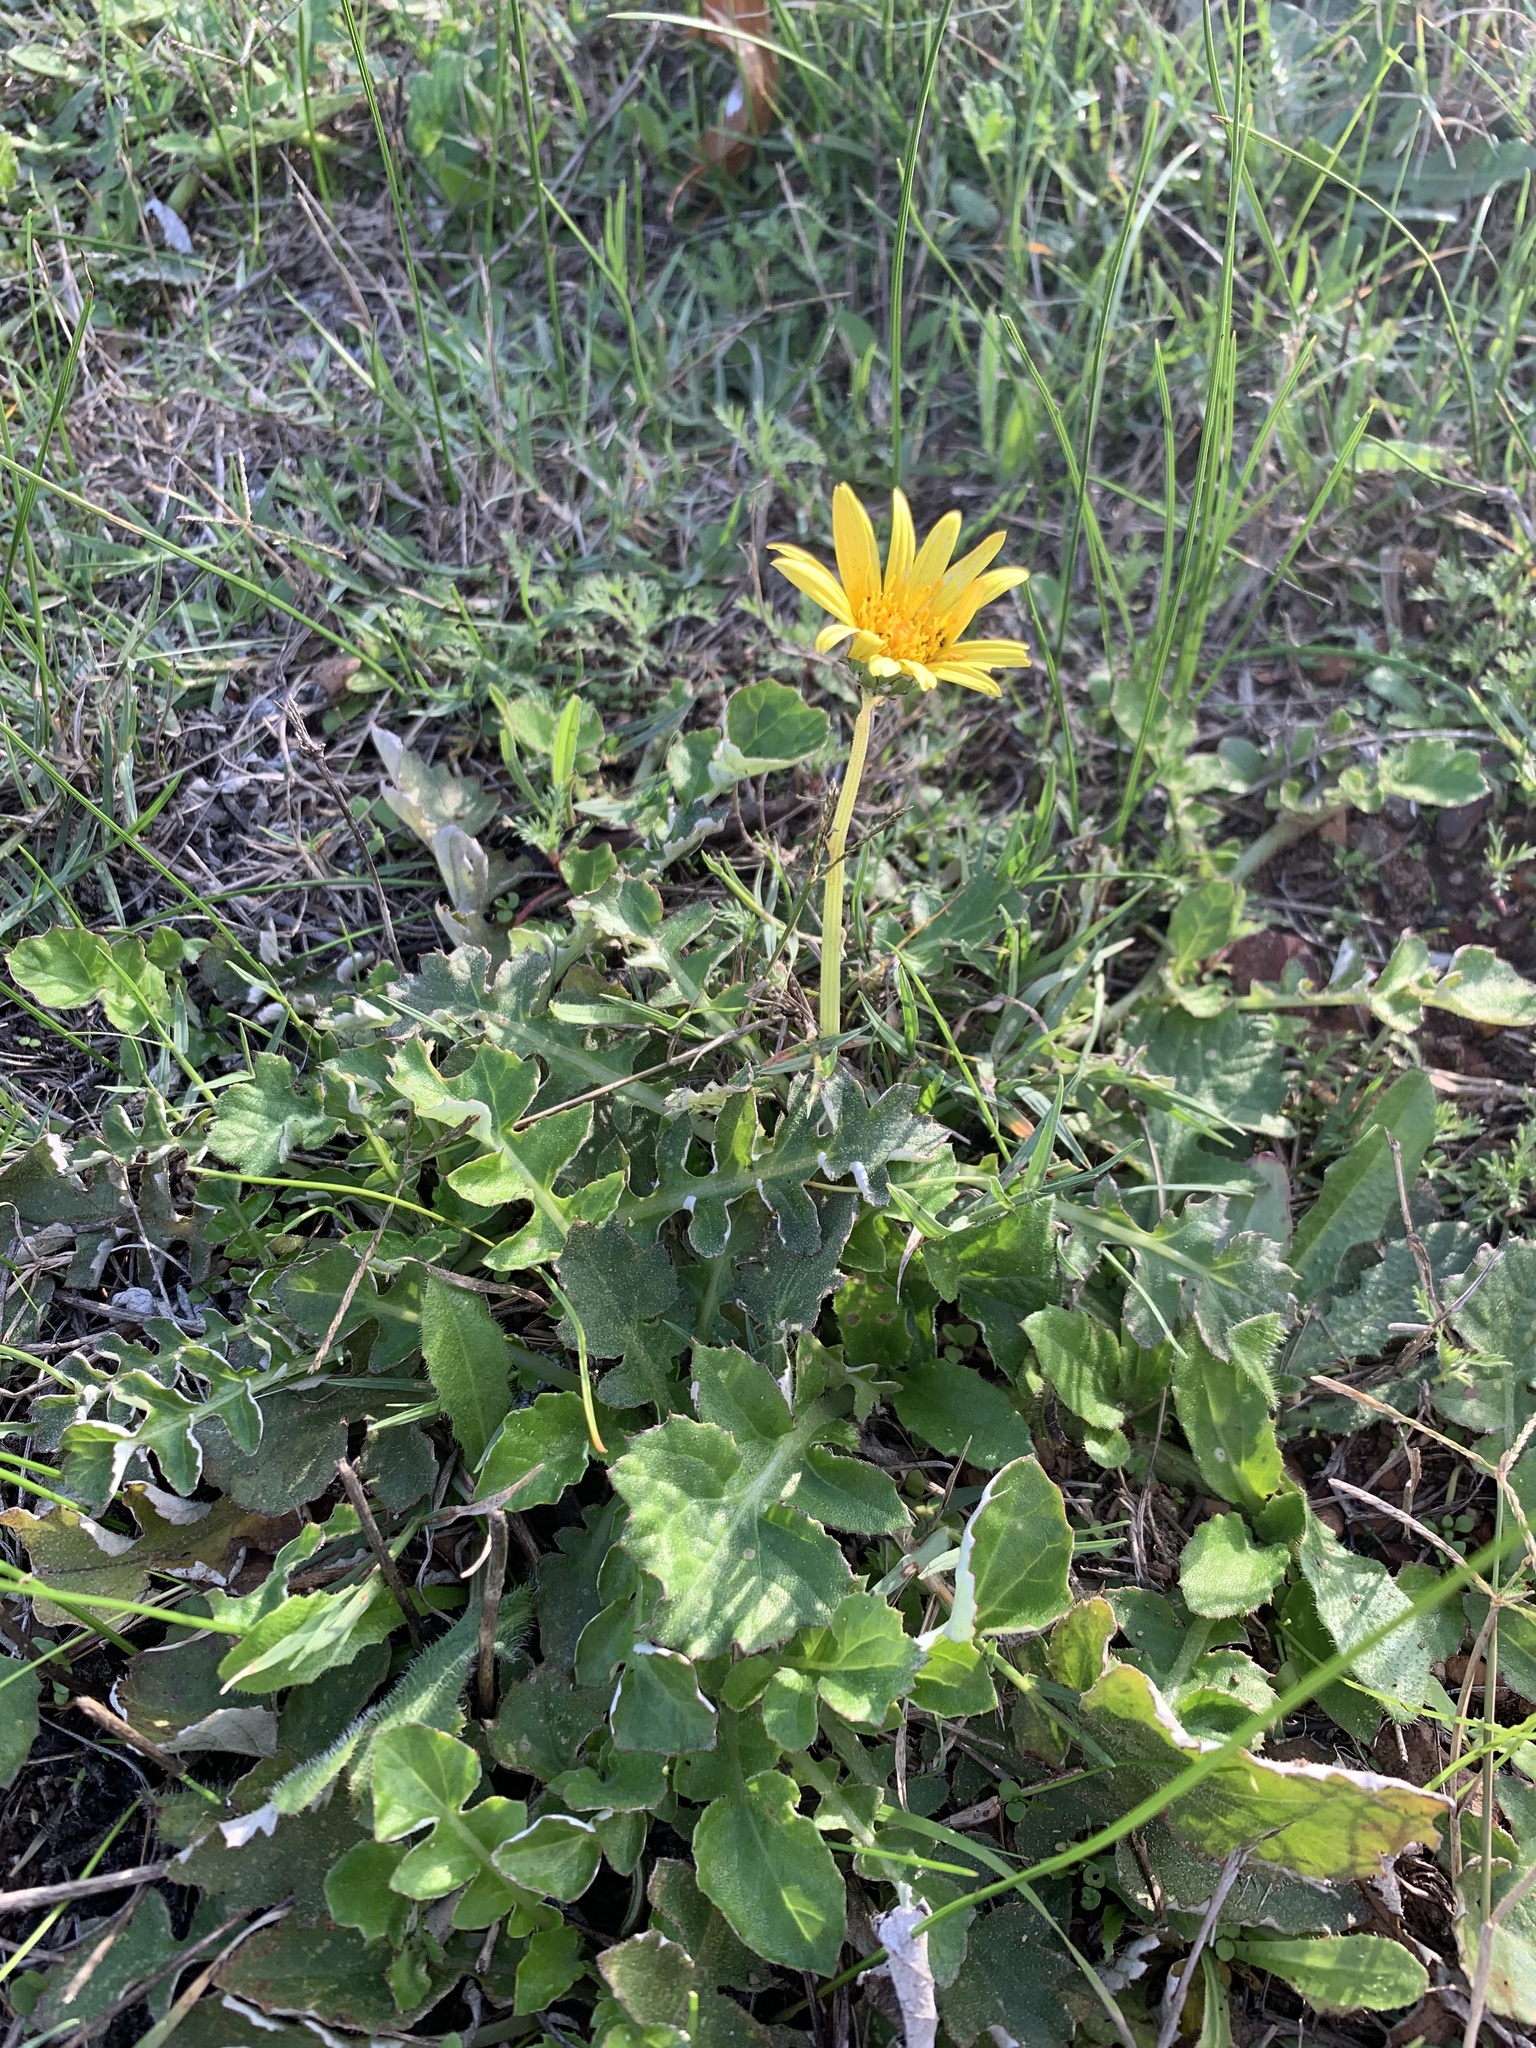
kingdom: Plantae
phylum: Tracheophyta
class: Magnoliopsida
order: Asterales
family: Asteraceae
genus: Arctotheca
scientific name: Arctotheca prostrata
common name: Capeweed
